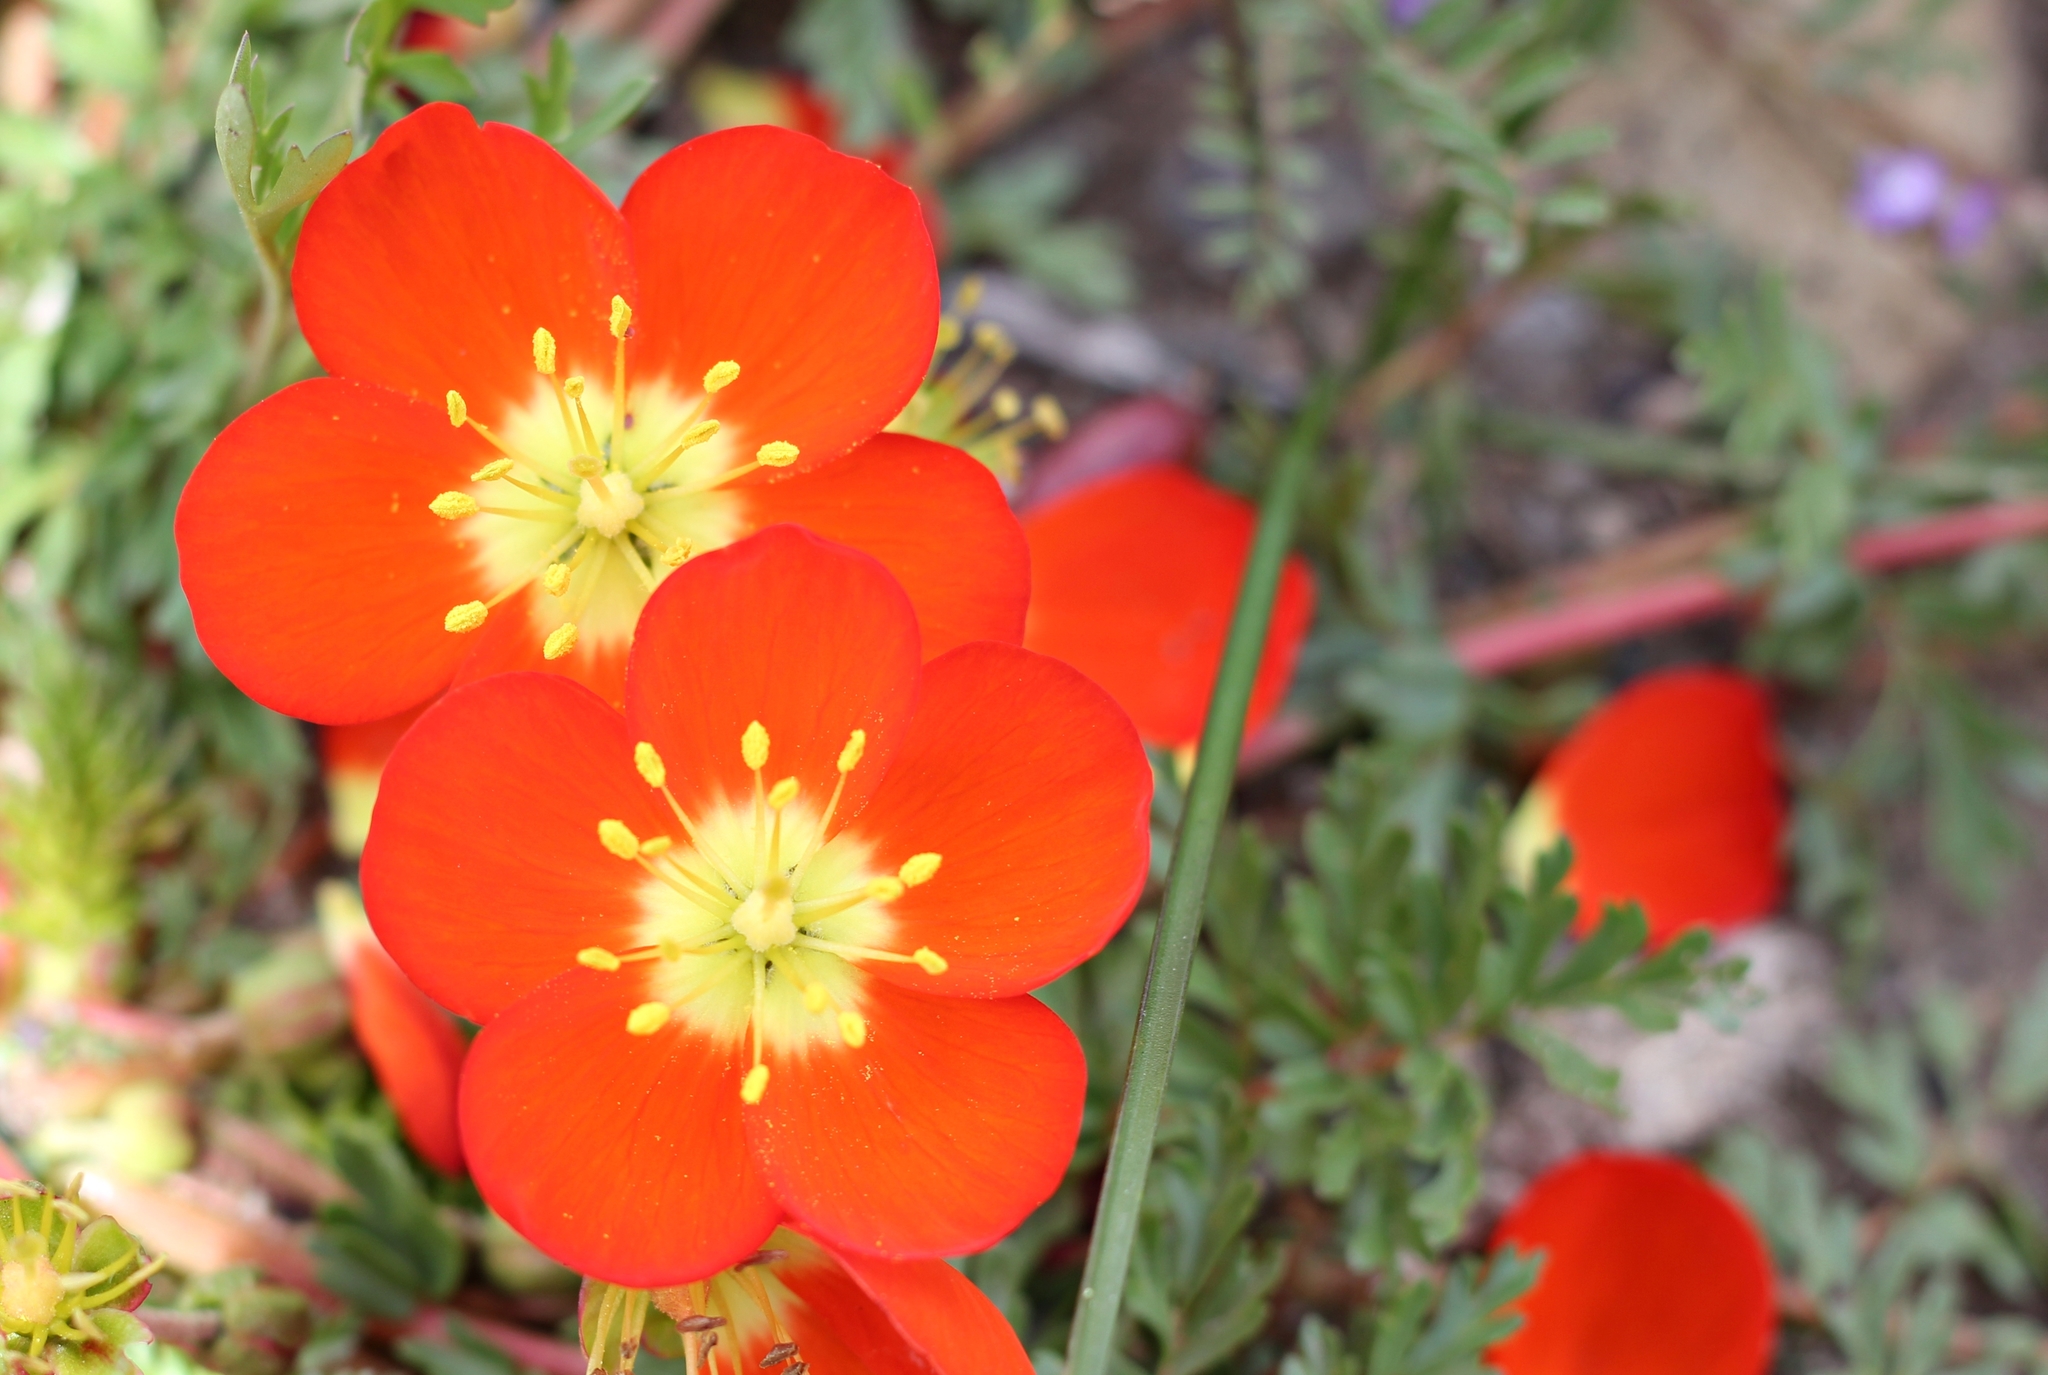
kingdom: Plantae
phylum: Tracheophyta
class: Magnoliopsida
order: Geraniales
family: Hypseocharitaceae
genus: Hypseocharis
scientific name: Hypseocharis pimpinellifolia
